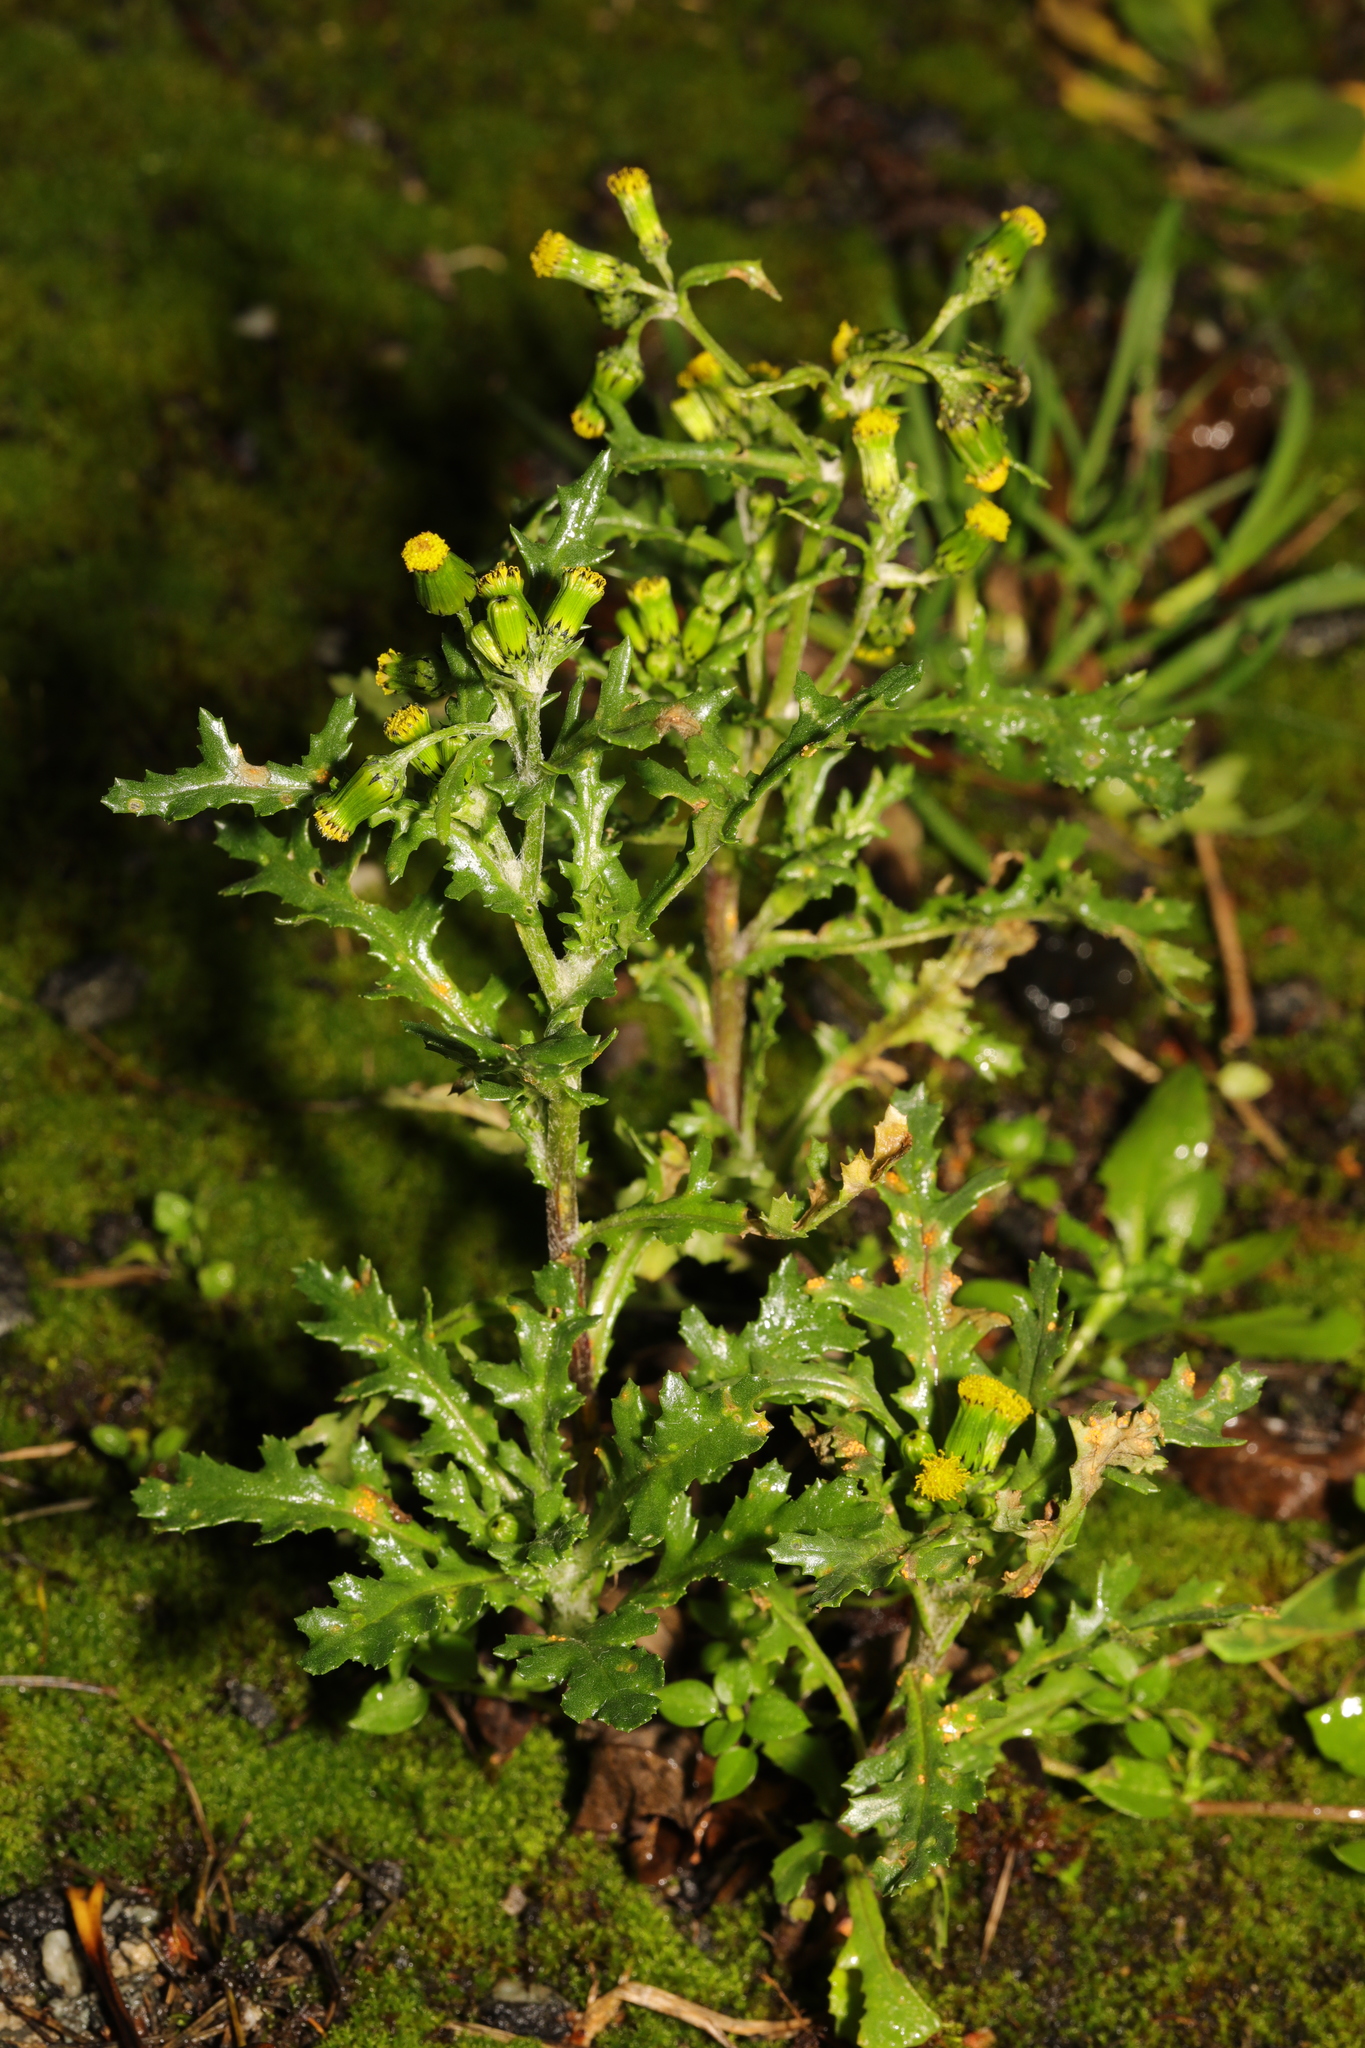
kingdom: Plantae
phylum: Tracheophyta
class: Magnoliopsida
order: Asterales
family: Asteraceae
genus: Senecio
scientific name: Senecio vulgaris
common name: Old-man-in-the-spring
